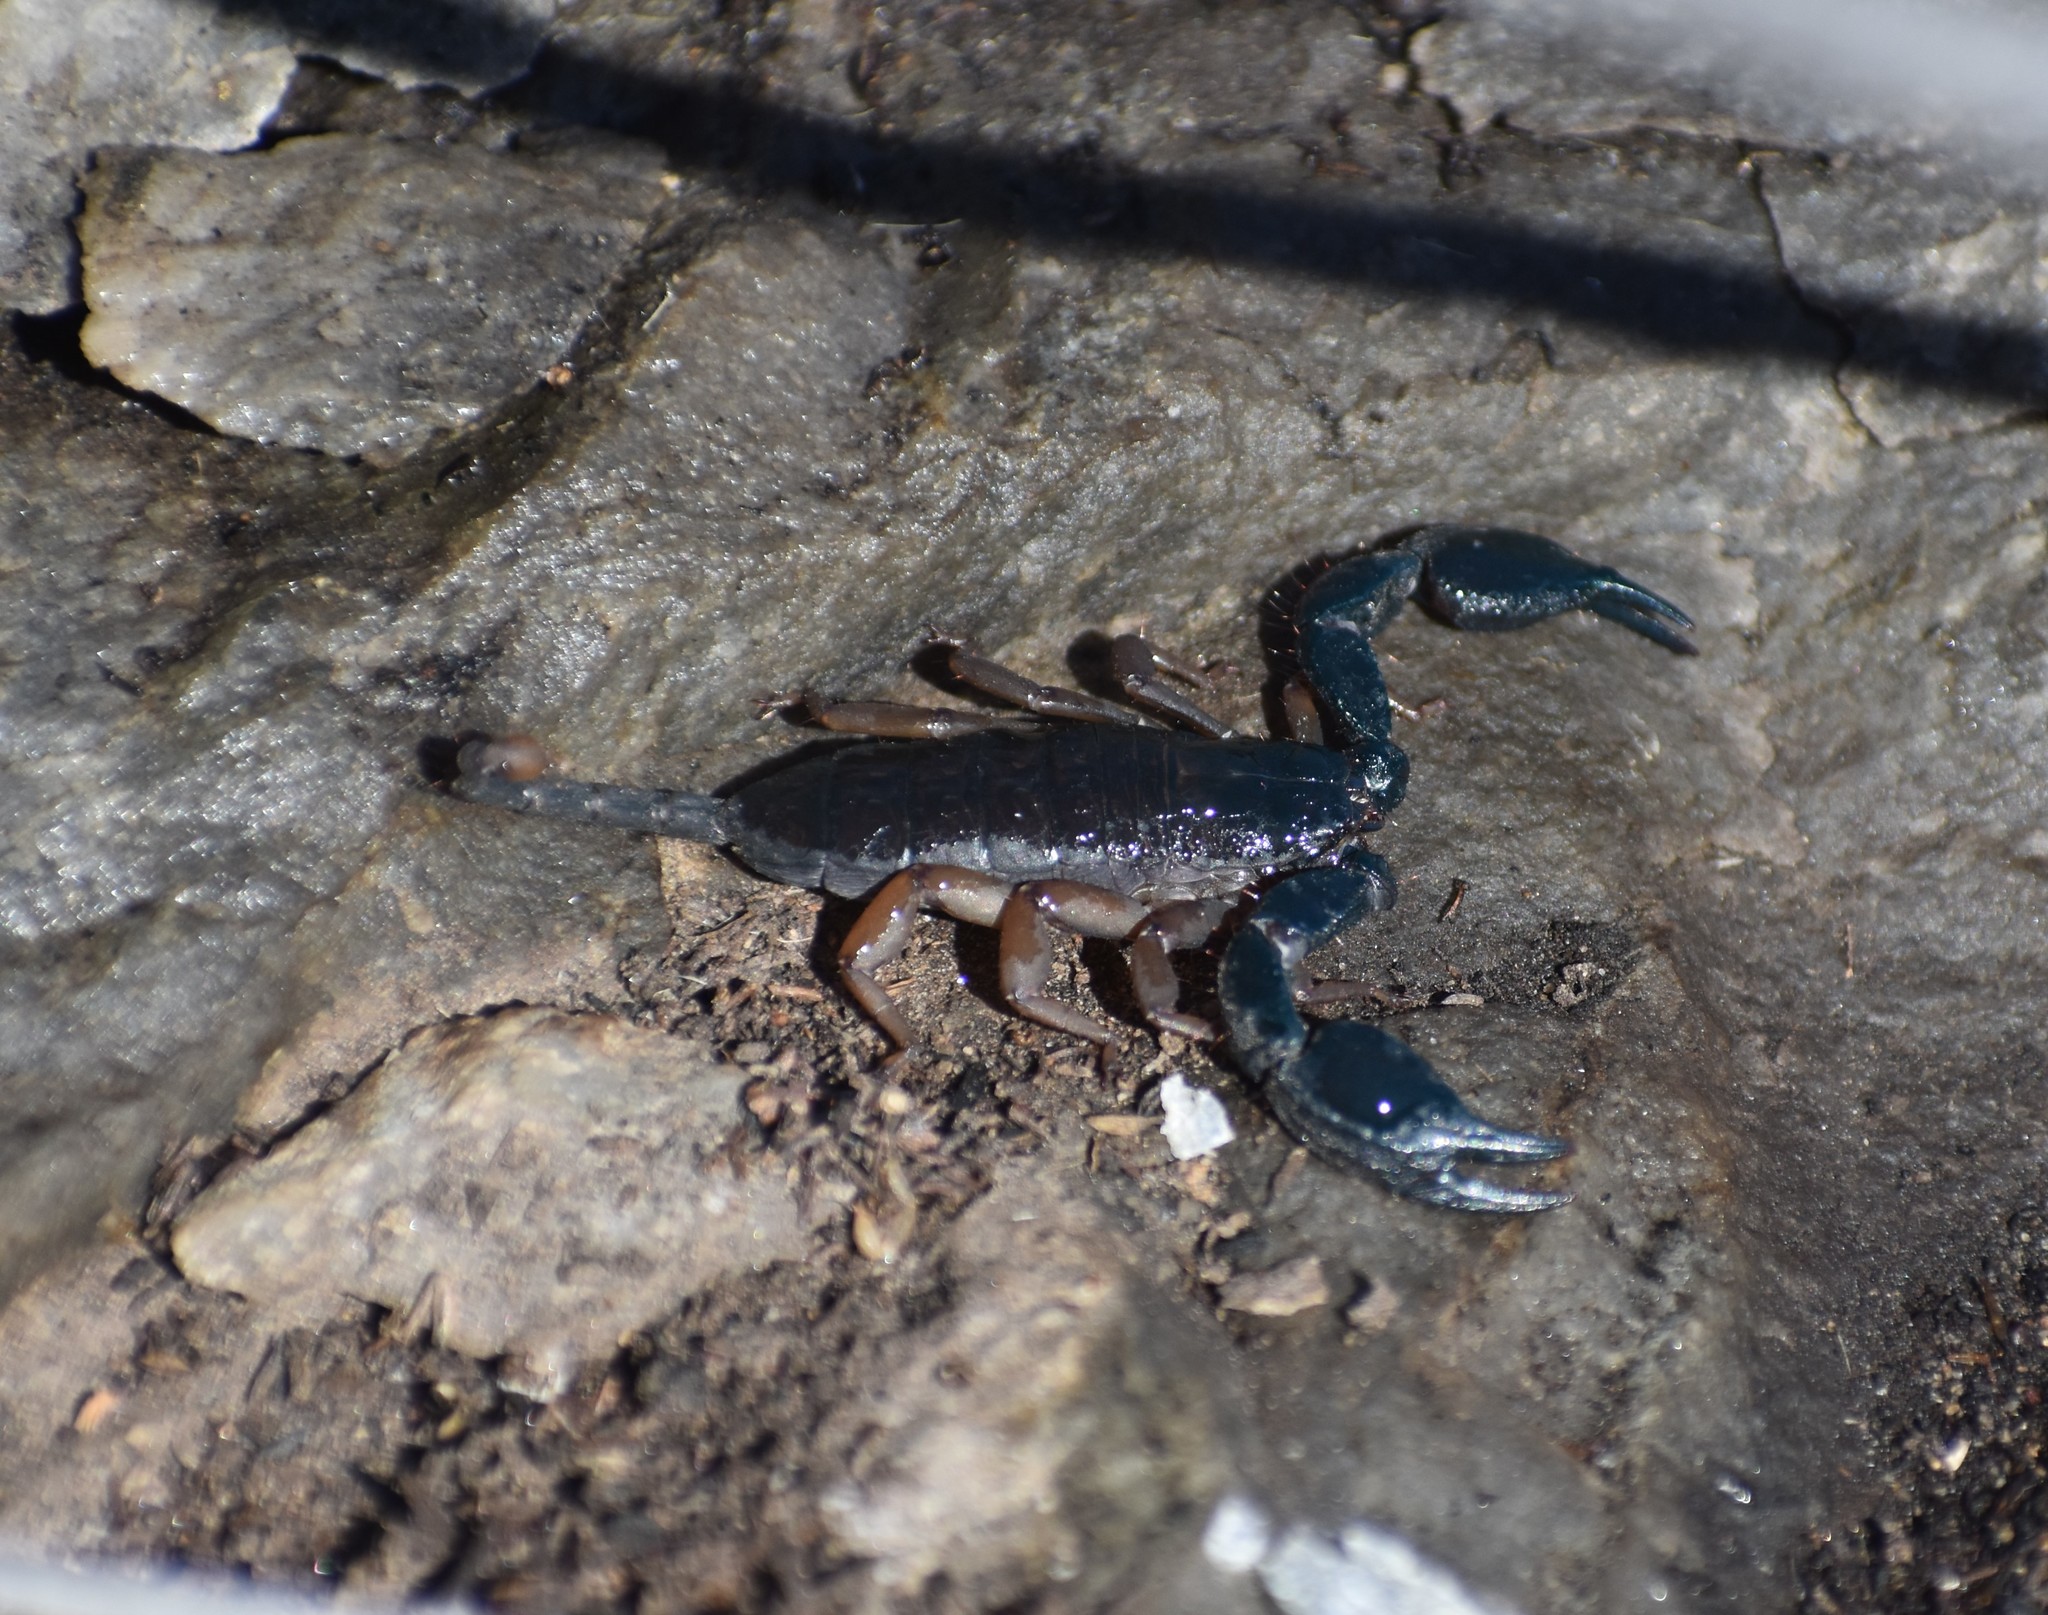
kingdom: Animalia
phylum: Arthropoda
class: Arachnida
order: Scorpiones
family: Hormuridae
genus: Opisthacanthus
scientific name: Opisthacanthus diremptus
